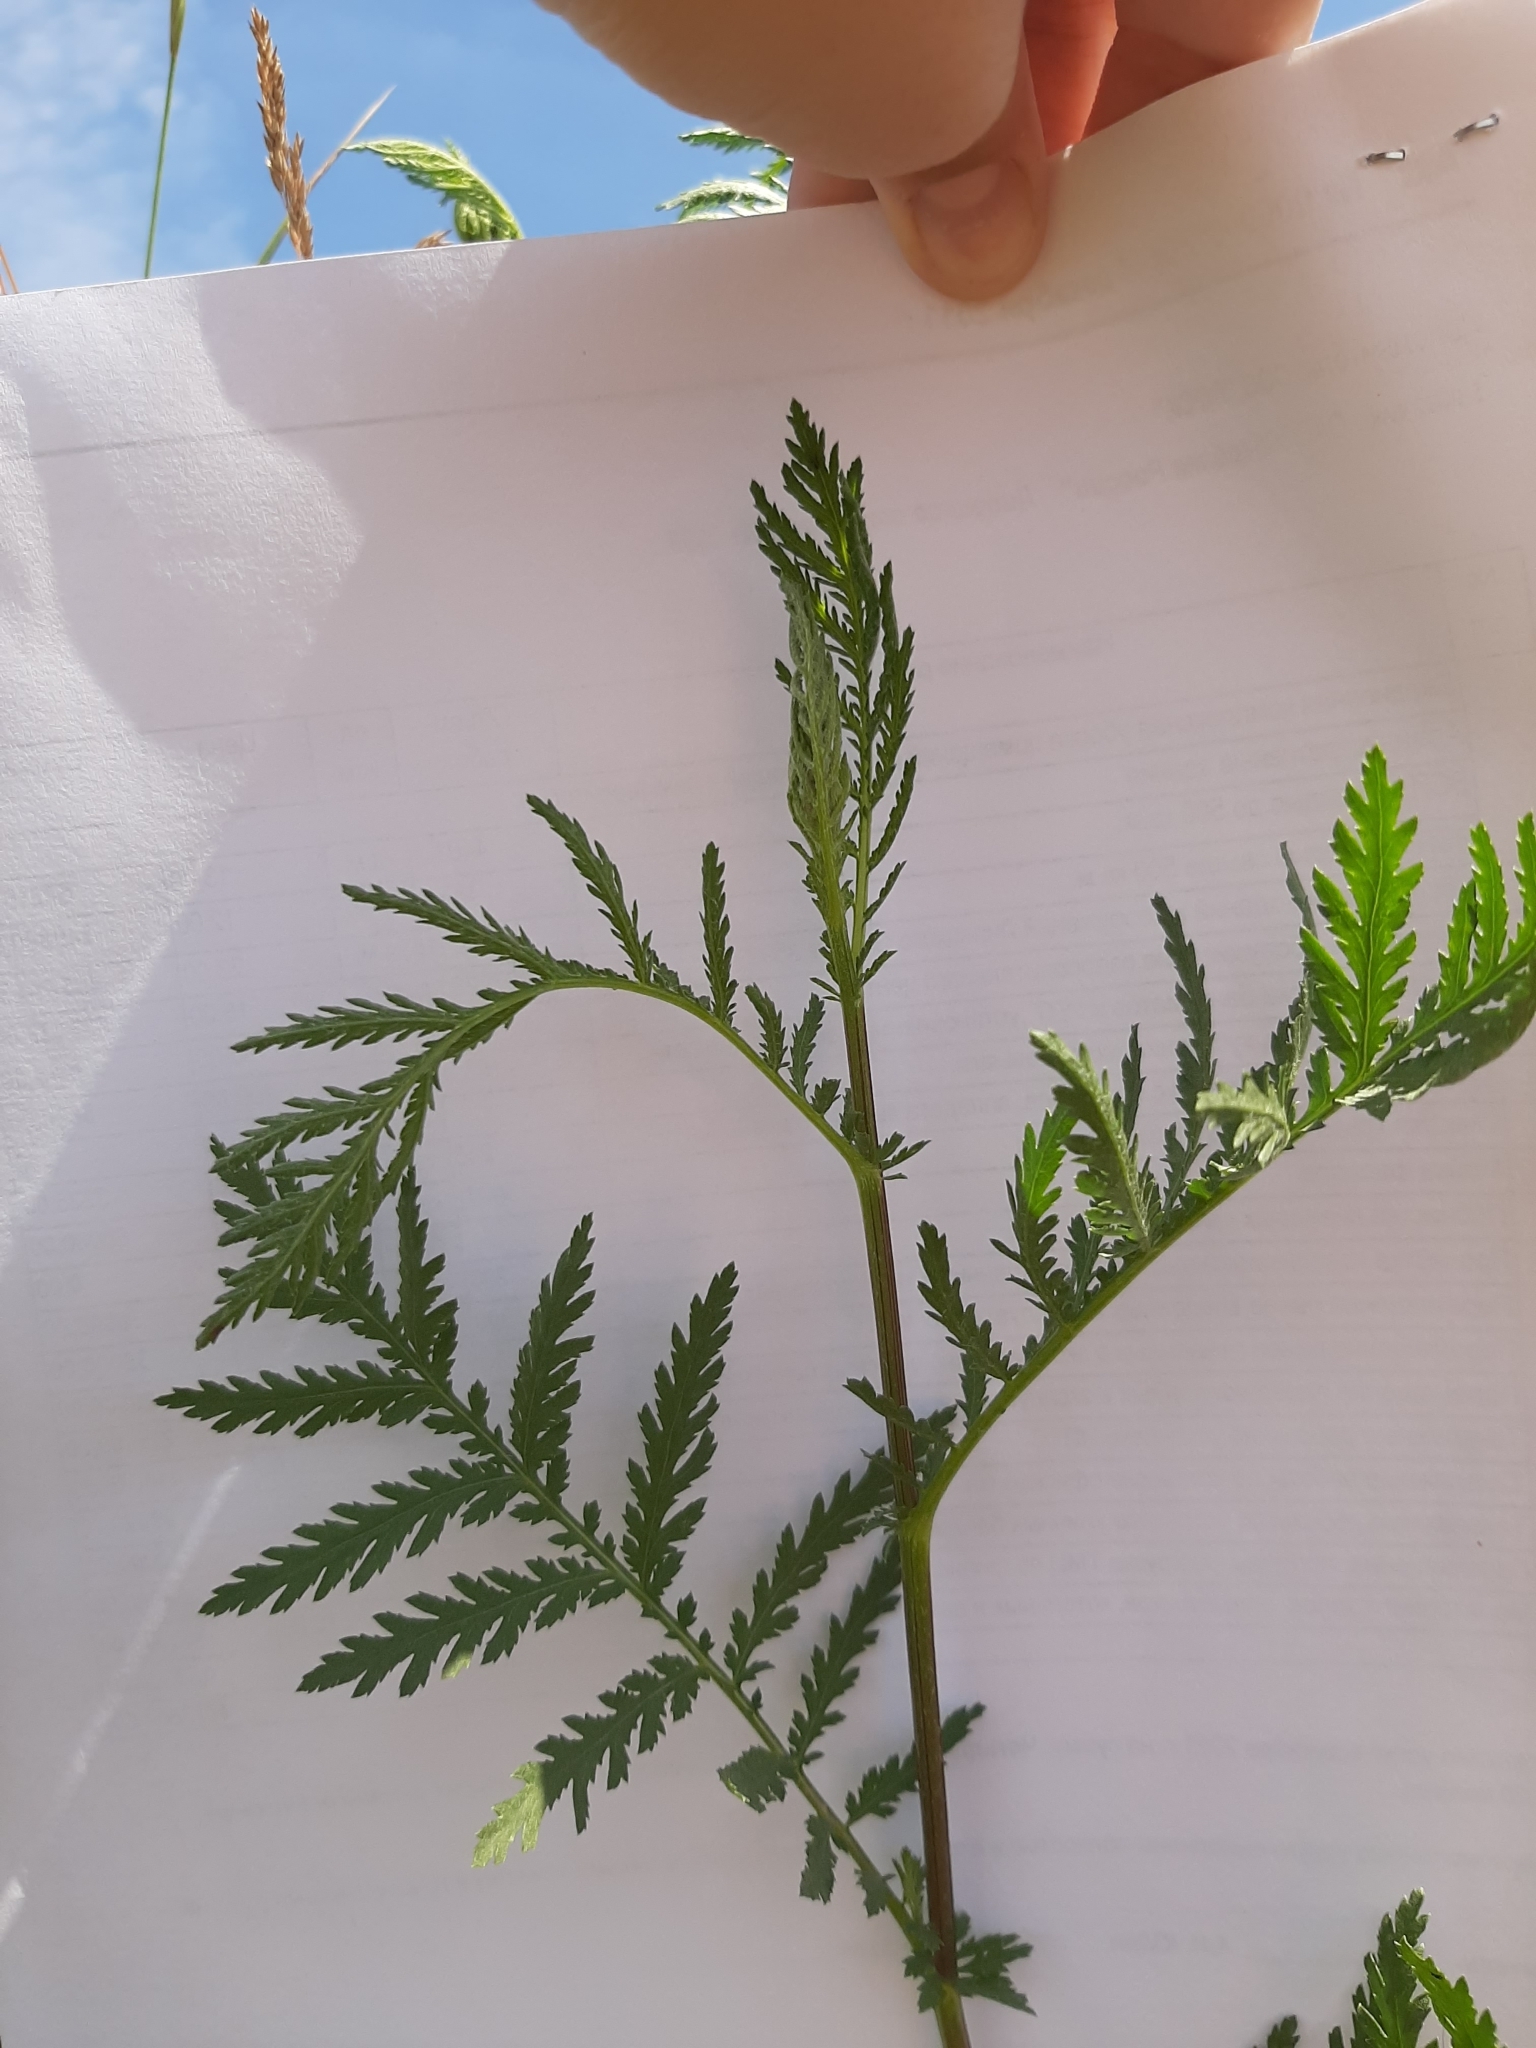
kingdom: Plantae
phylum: Tracheophyta
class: Magnoliopsida
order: Asterales
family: Asteraceae
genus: Tanacetum
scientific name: Tanacetum vulgare
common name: Common tansy
